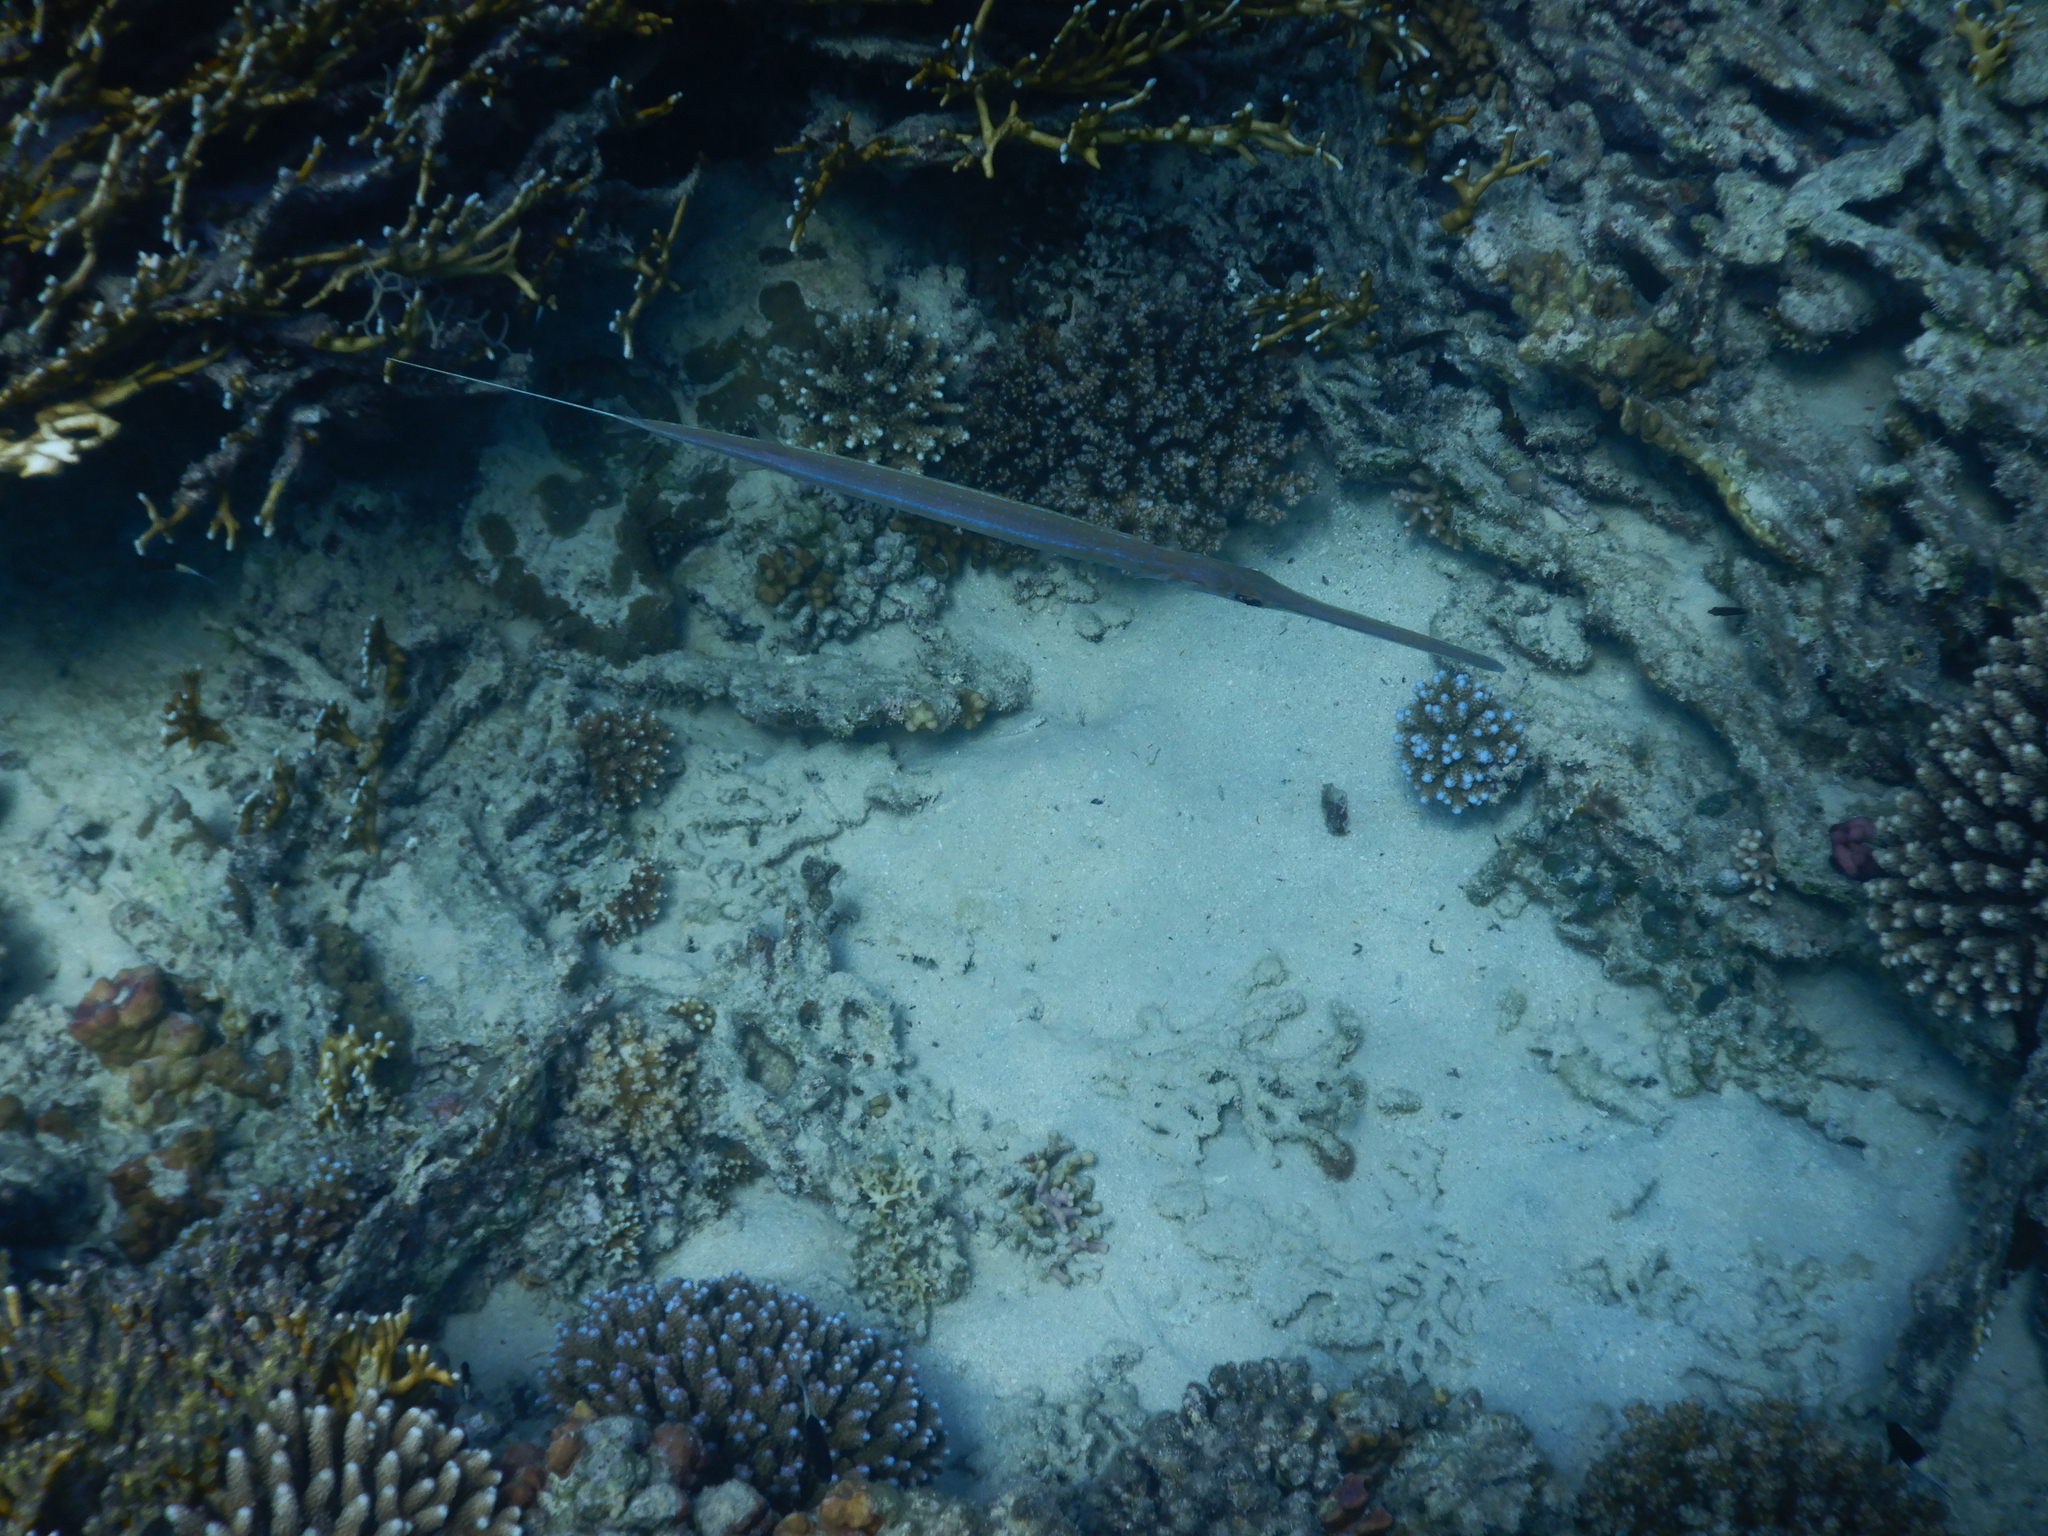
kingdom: Animalia
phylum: Chordata
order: Syngnathiformes
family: Fistulariidae
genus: Fistularia
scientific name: Fistularia commersonii
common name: Bluespotted cornetfish
